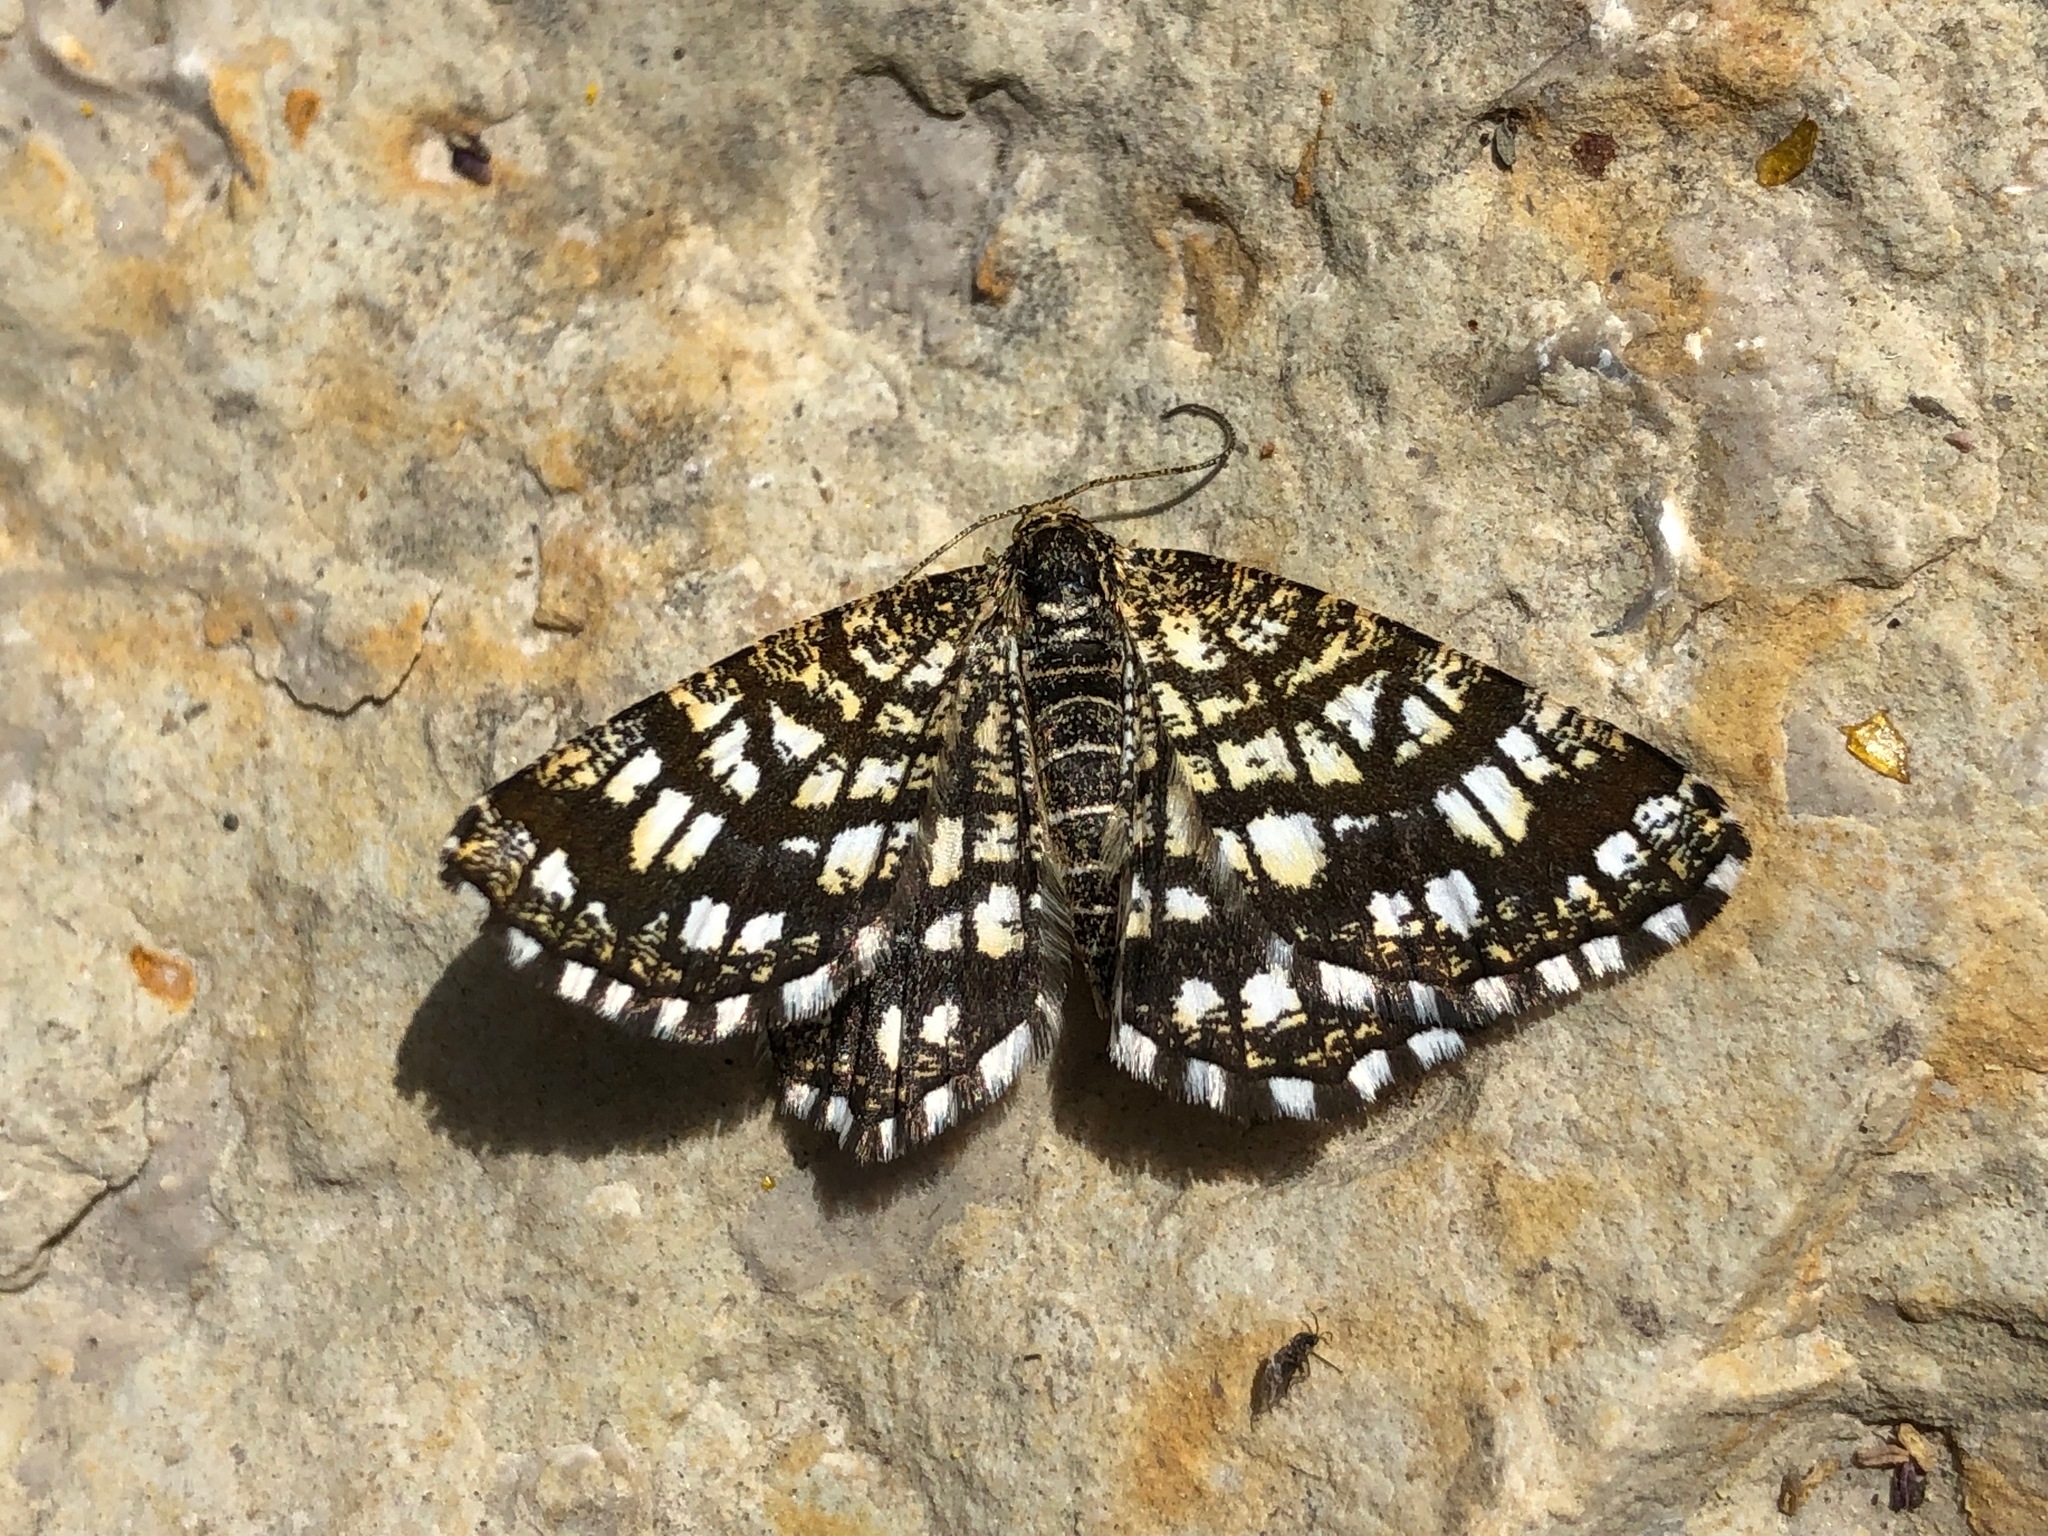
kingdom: Animalia
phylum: Arthropoda
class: Insecta
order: Lepidoptera
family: Geometridae
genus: Chiasmia
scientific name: Chiasmia clathrata
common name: Latticed heath
